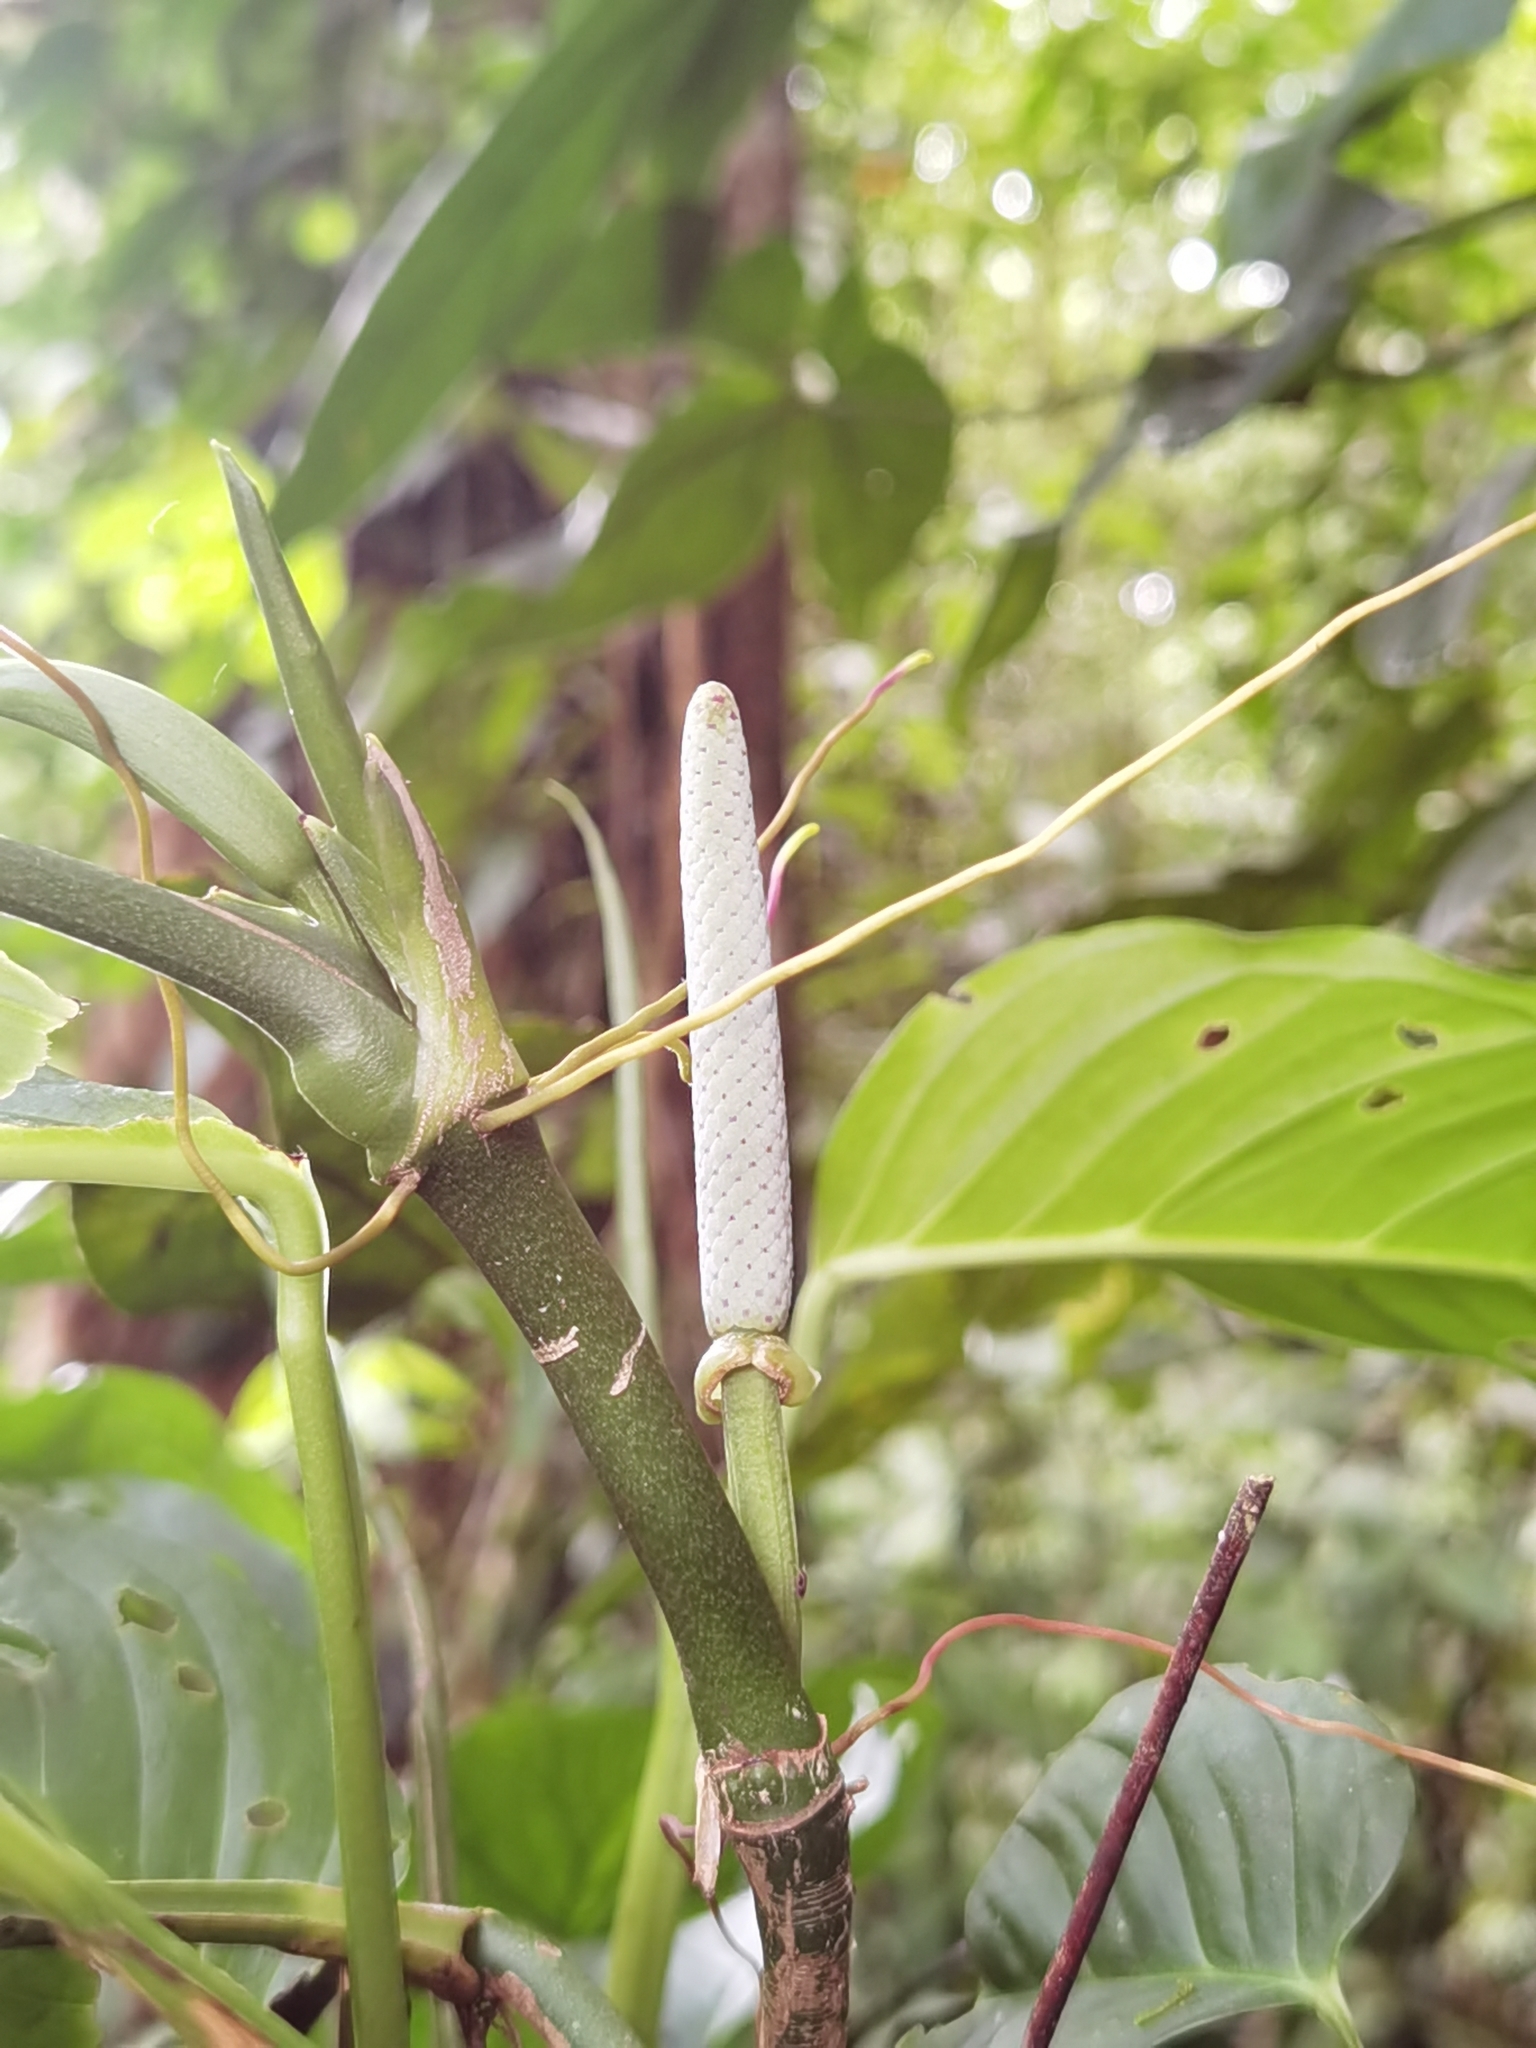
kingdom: Plantae
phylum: Tracheophyta
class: Liliopsida
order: Alismatales
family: Araceae
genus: Anthurium
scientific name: Anthurium pentaphyllum
